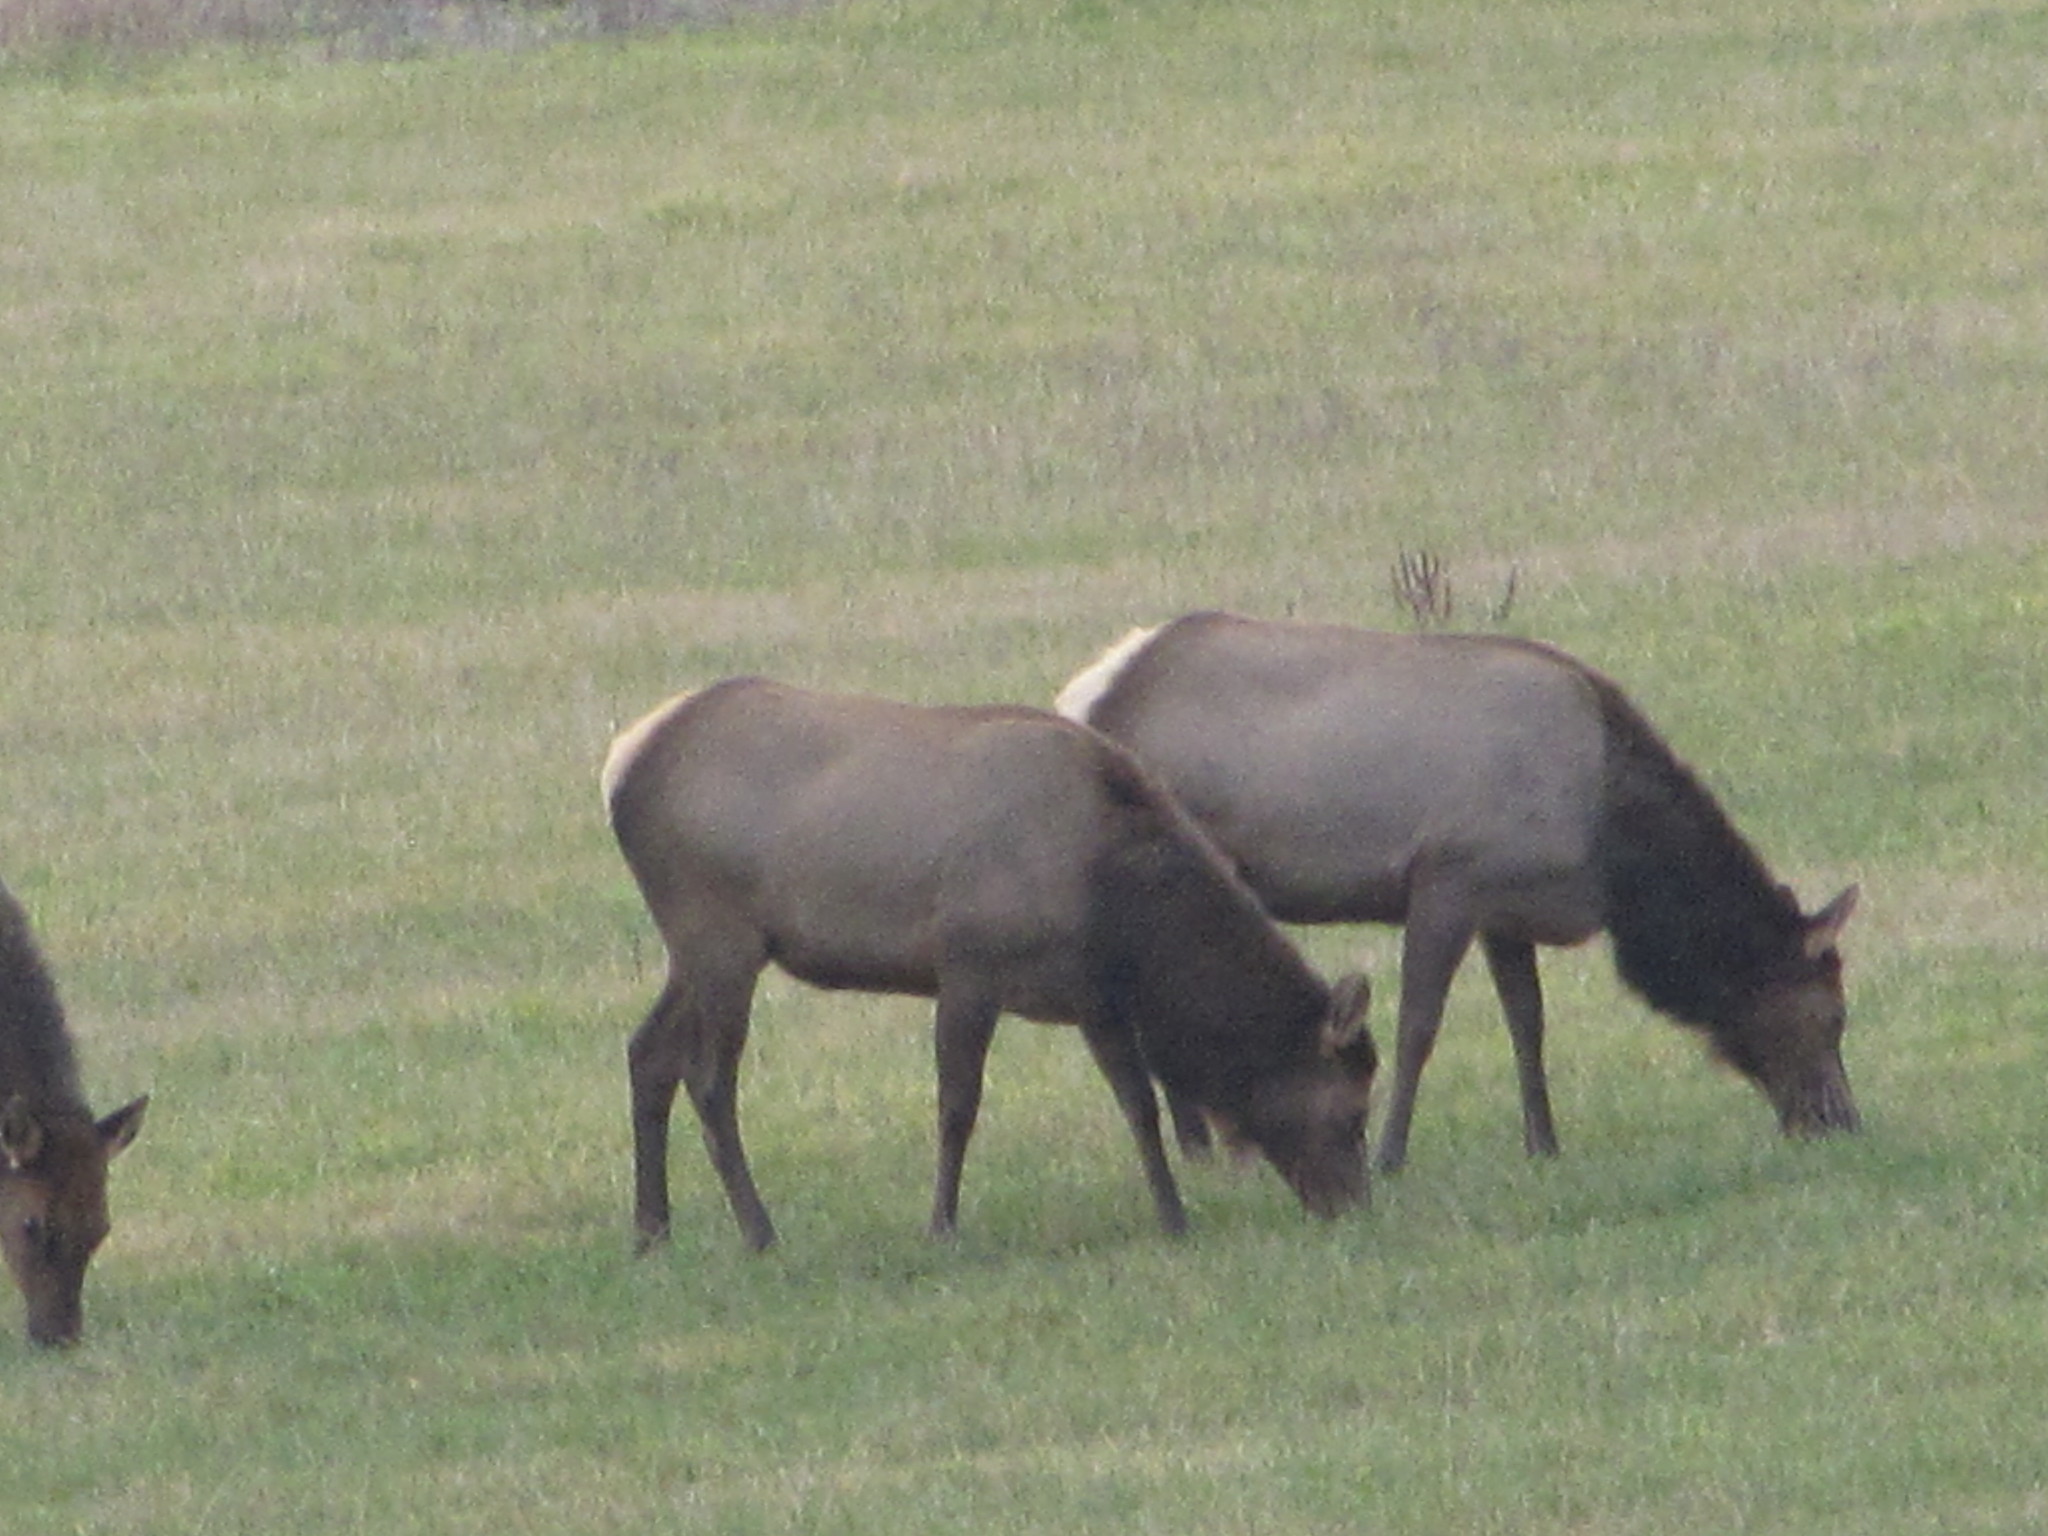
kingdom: Animalia
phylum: Chordata
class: Mammalia
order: Artiodactyla
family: Cervidae
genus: Cervus
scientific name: Cervus elaphus
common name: Red deer
